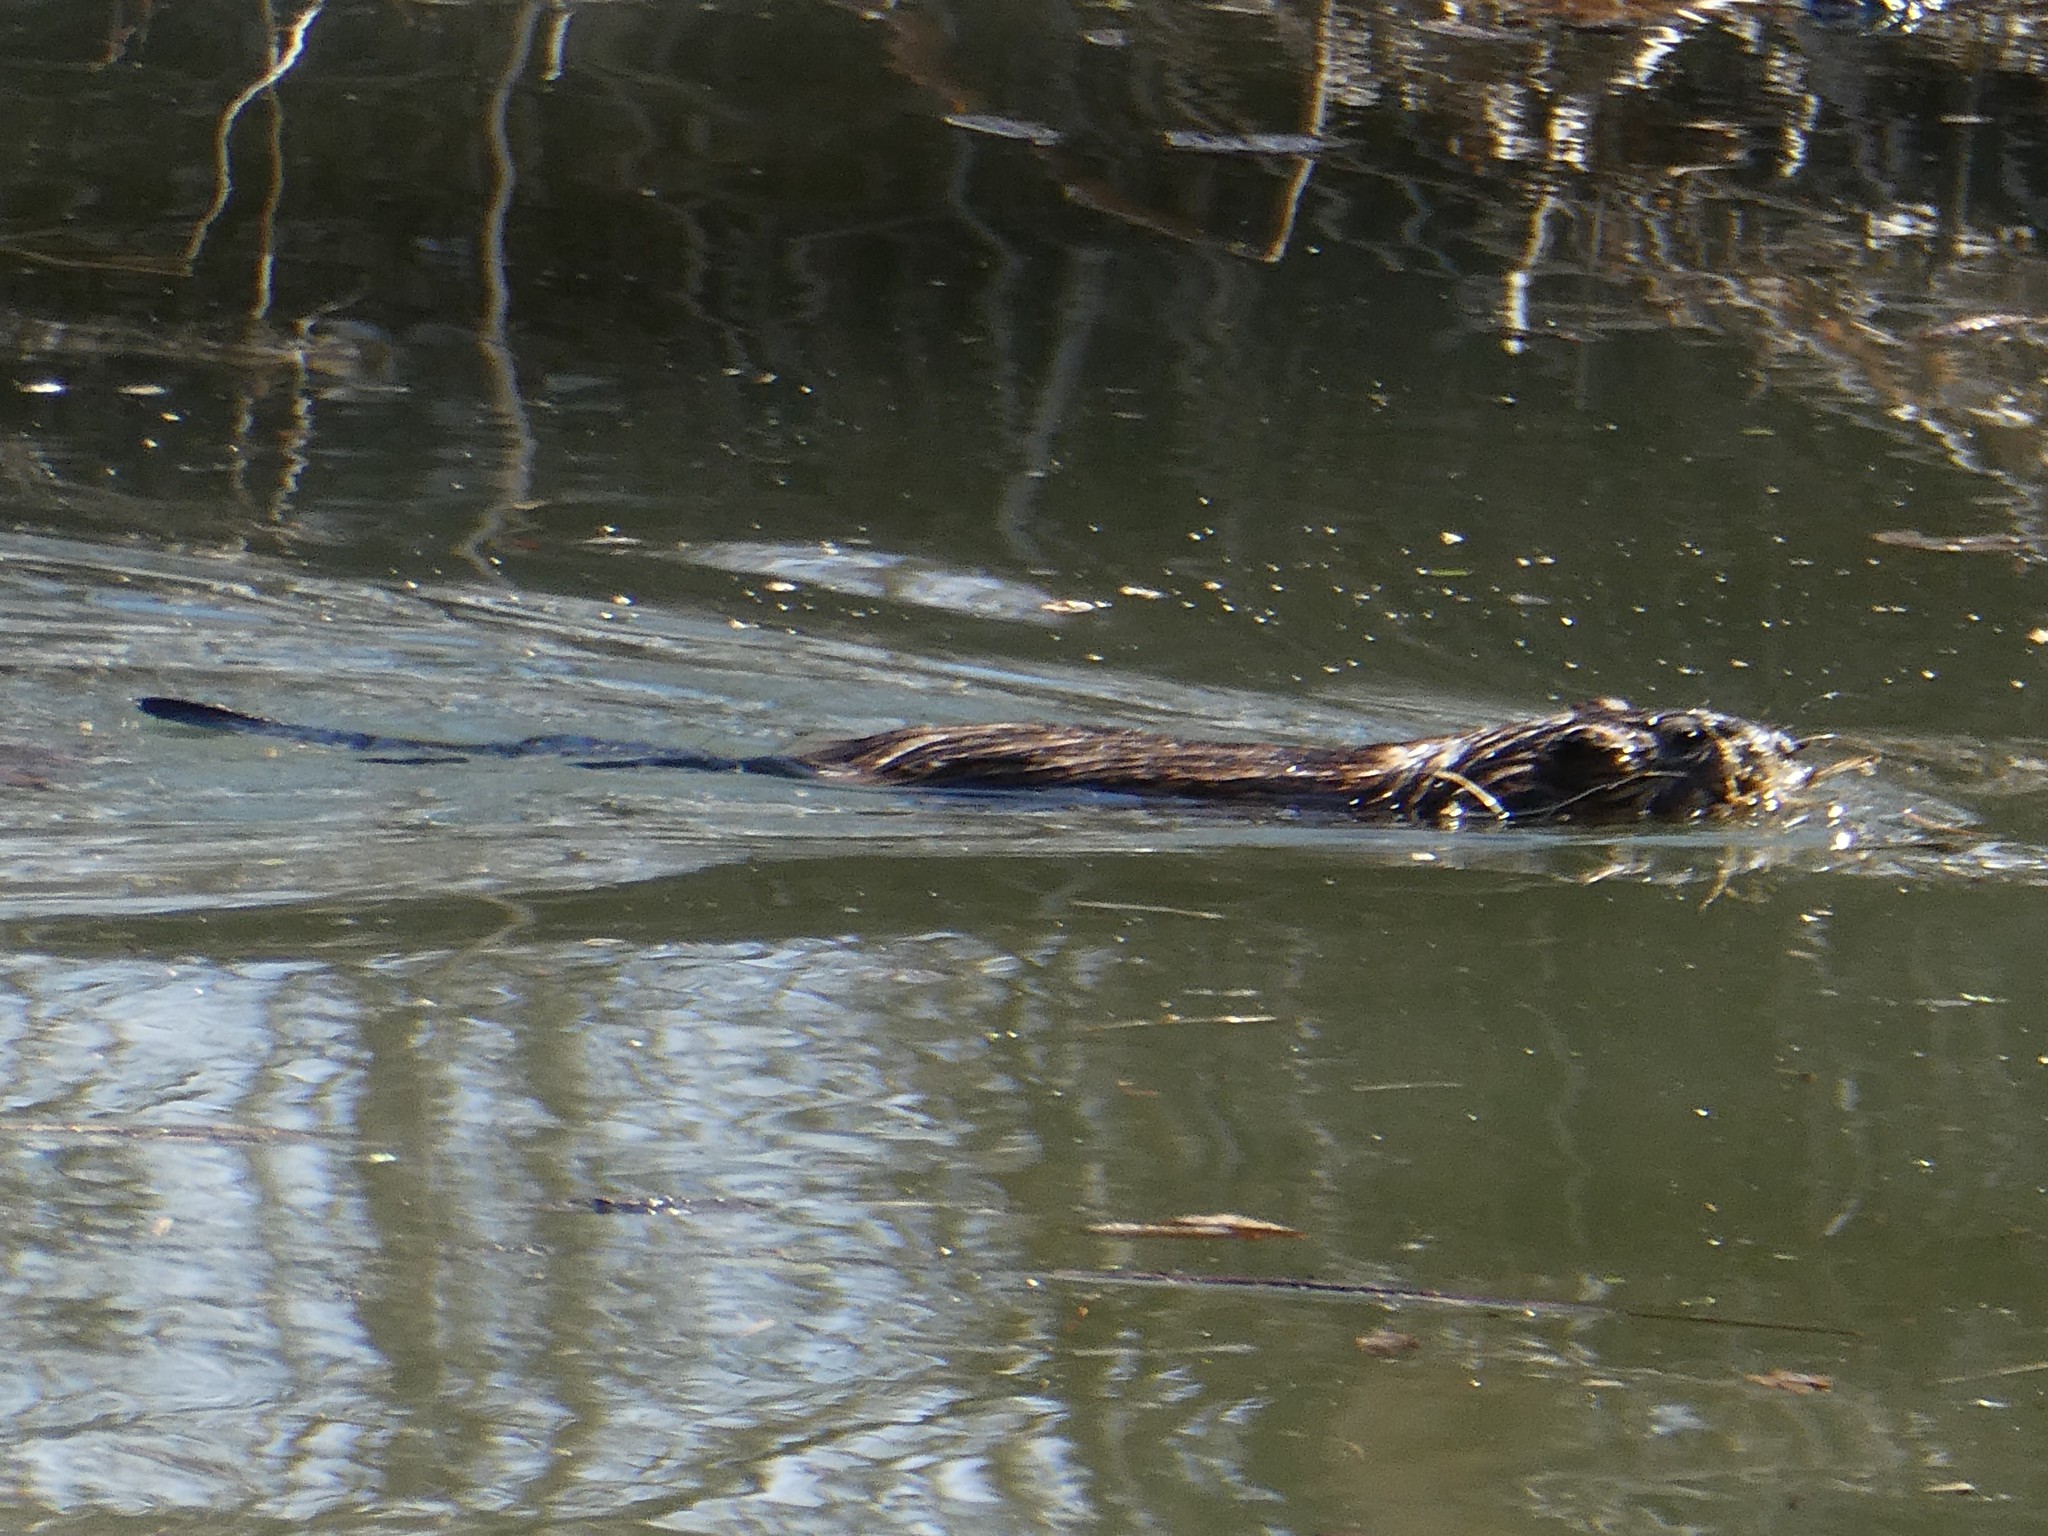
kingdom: Animalia
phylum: Chordata
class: Mammalia
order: Rodentia
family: Cricetidae
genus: Ondatra
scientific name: Ondatra zibethicus
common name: Muskrat
